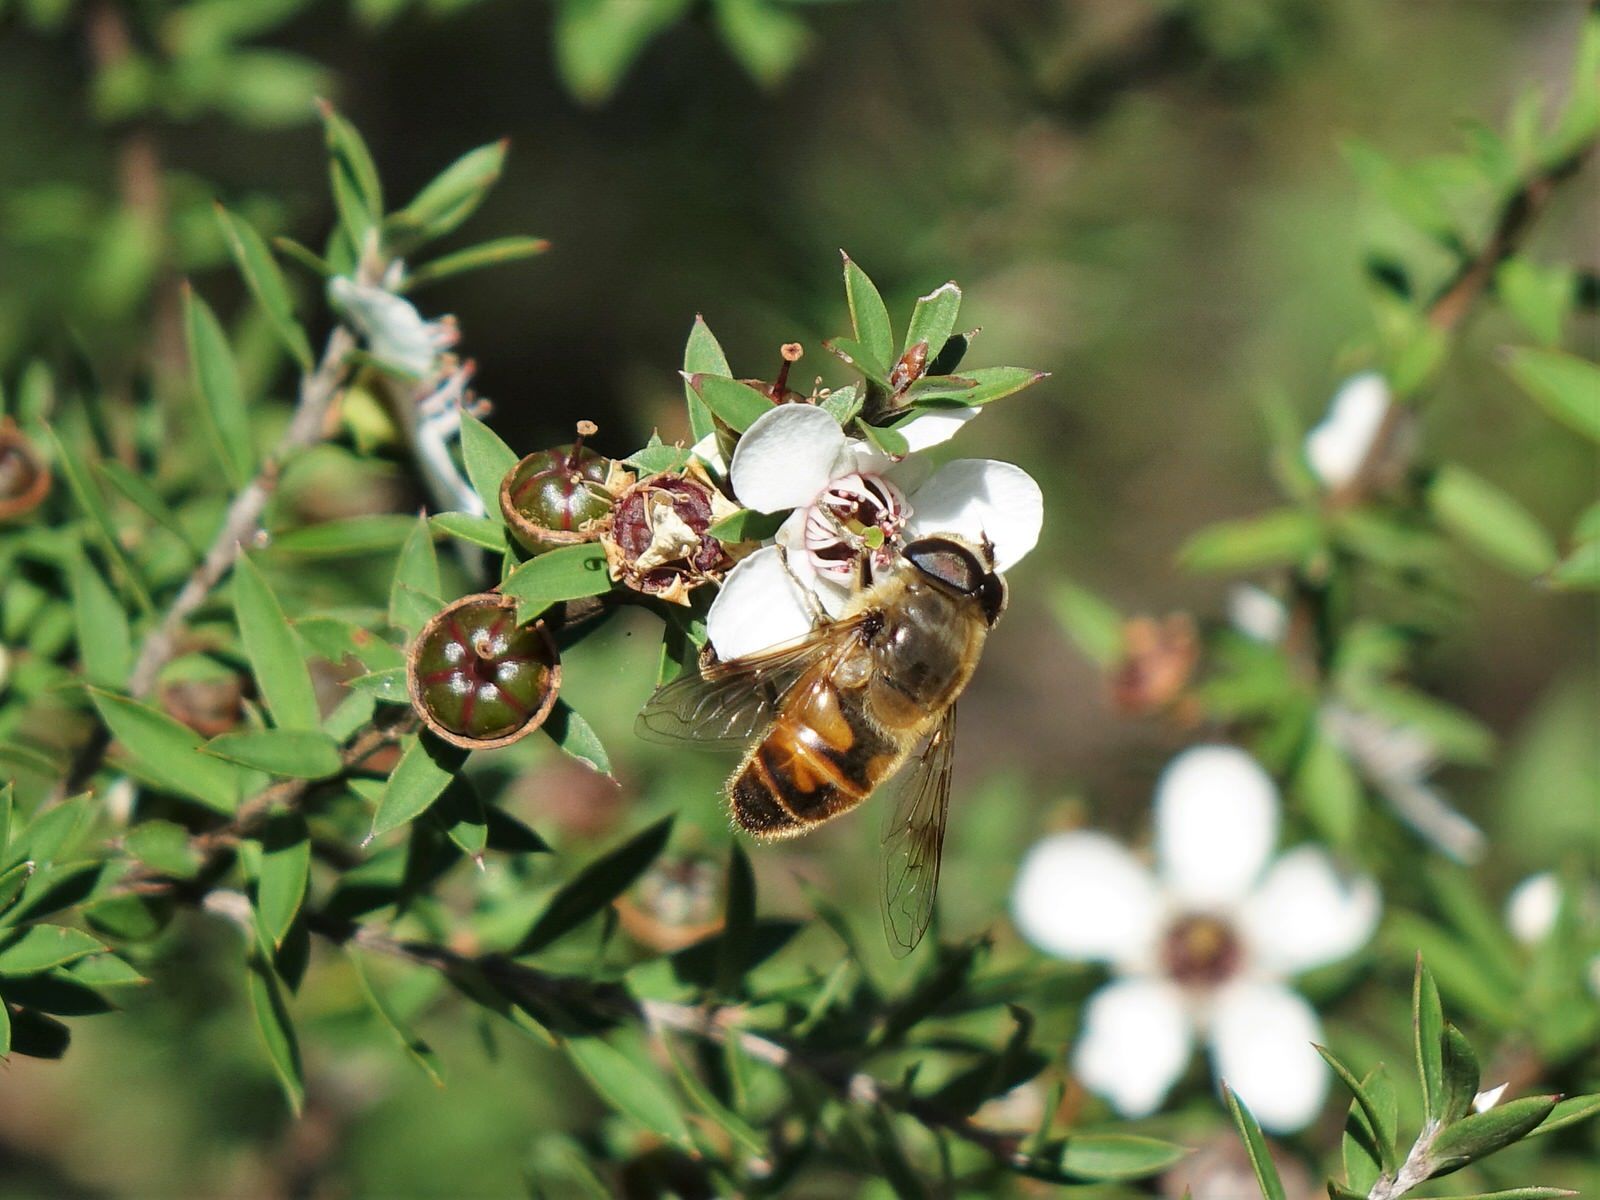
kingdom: Animalia
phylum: Arthropoda
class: Insecta
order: Diptera
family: Syrphidae
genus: Eristalis
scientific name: Eristalis tenax
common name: Drone fly
